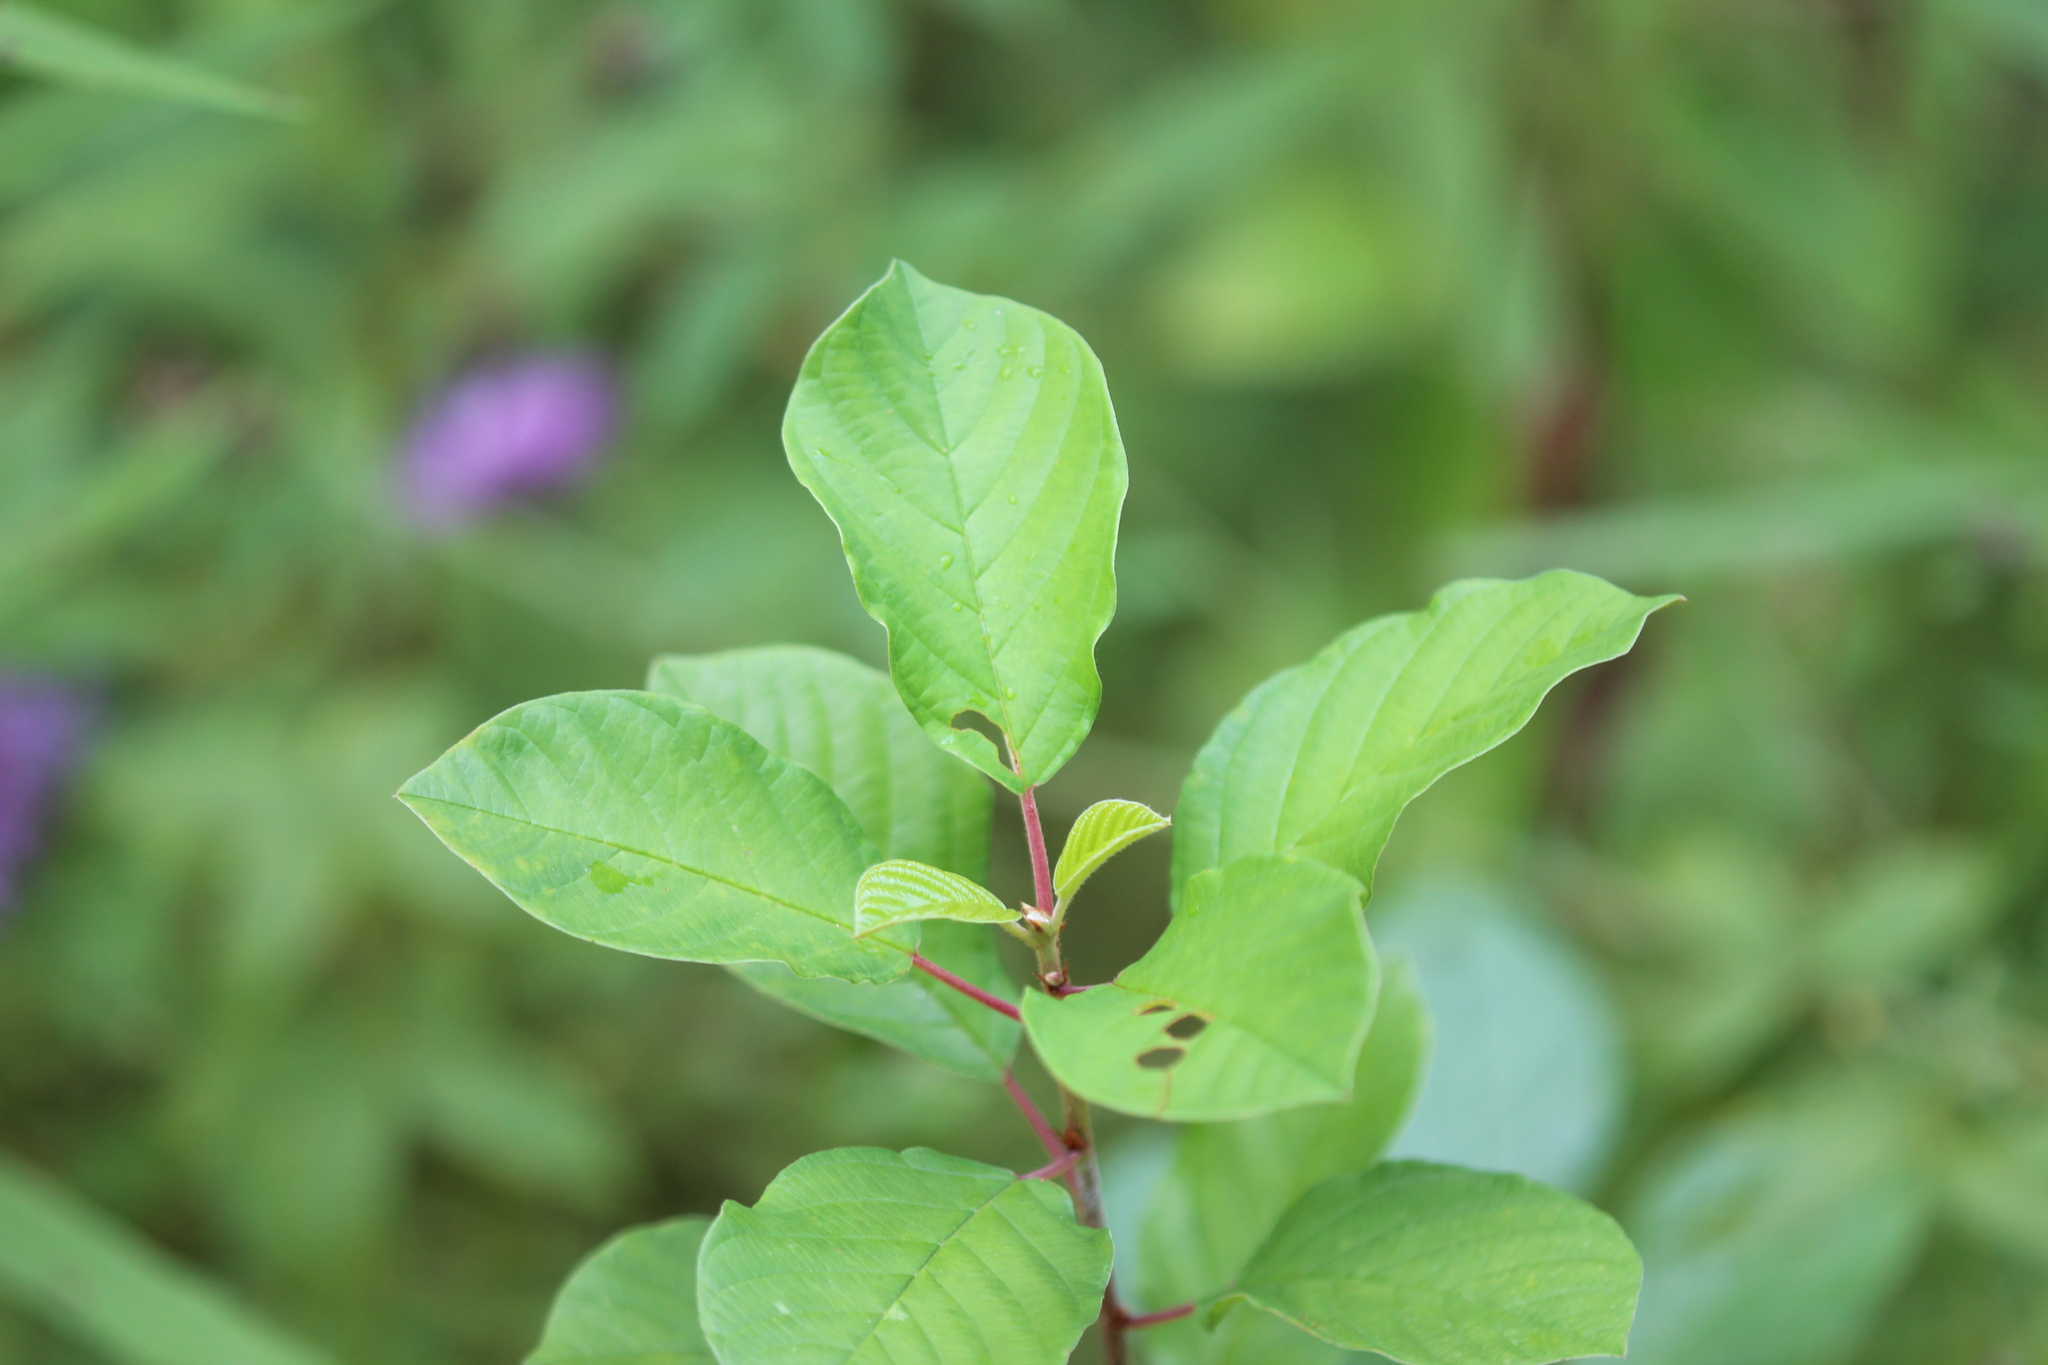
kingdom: Plantae
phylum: Tracheophyta
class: Magnoliopsida
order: Rosales
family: Rhamnaceae
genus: Frangula
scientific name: Frangula alnus
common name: Alder buckthorn
